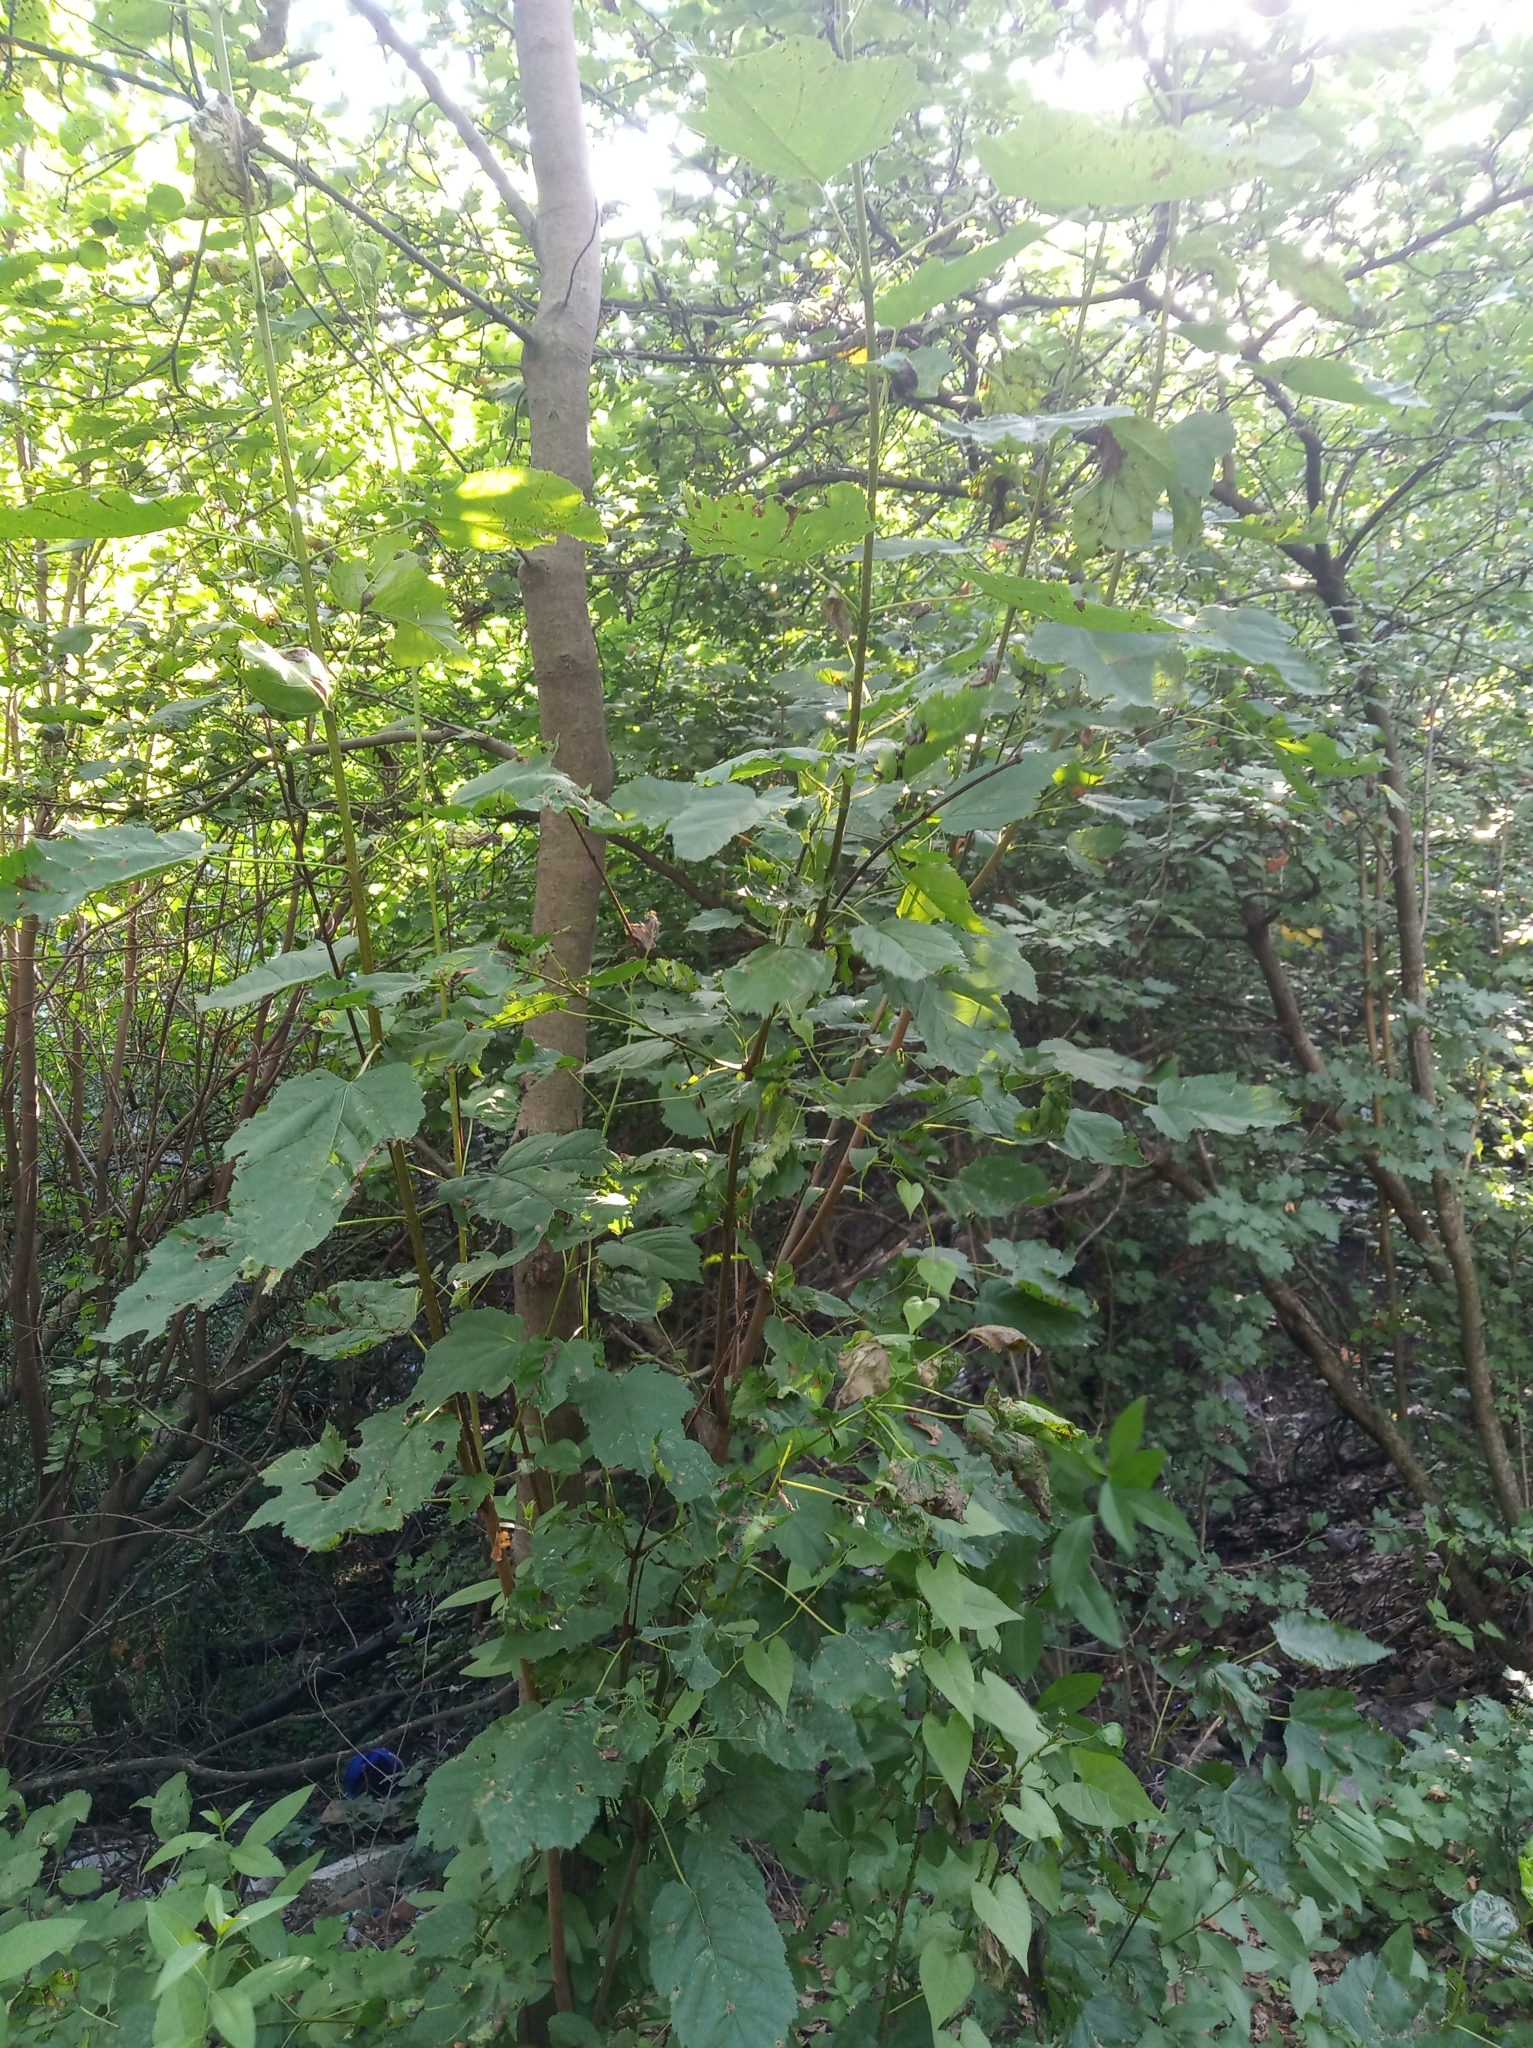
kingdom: Plantae
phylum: Tracheophyta
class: Magnoliopsida
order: Sapindales
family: Sapindaceae
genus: Acer
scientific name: Acer tataricum
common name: Tartar maple
